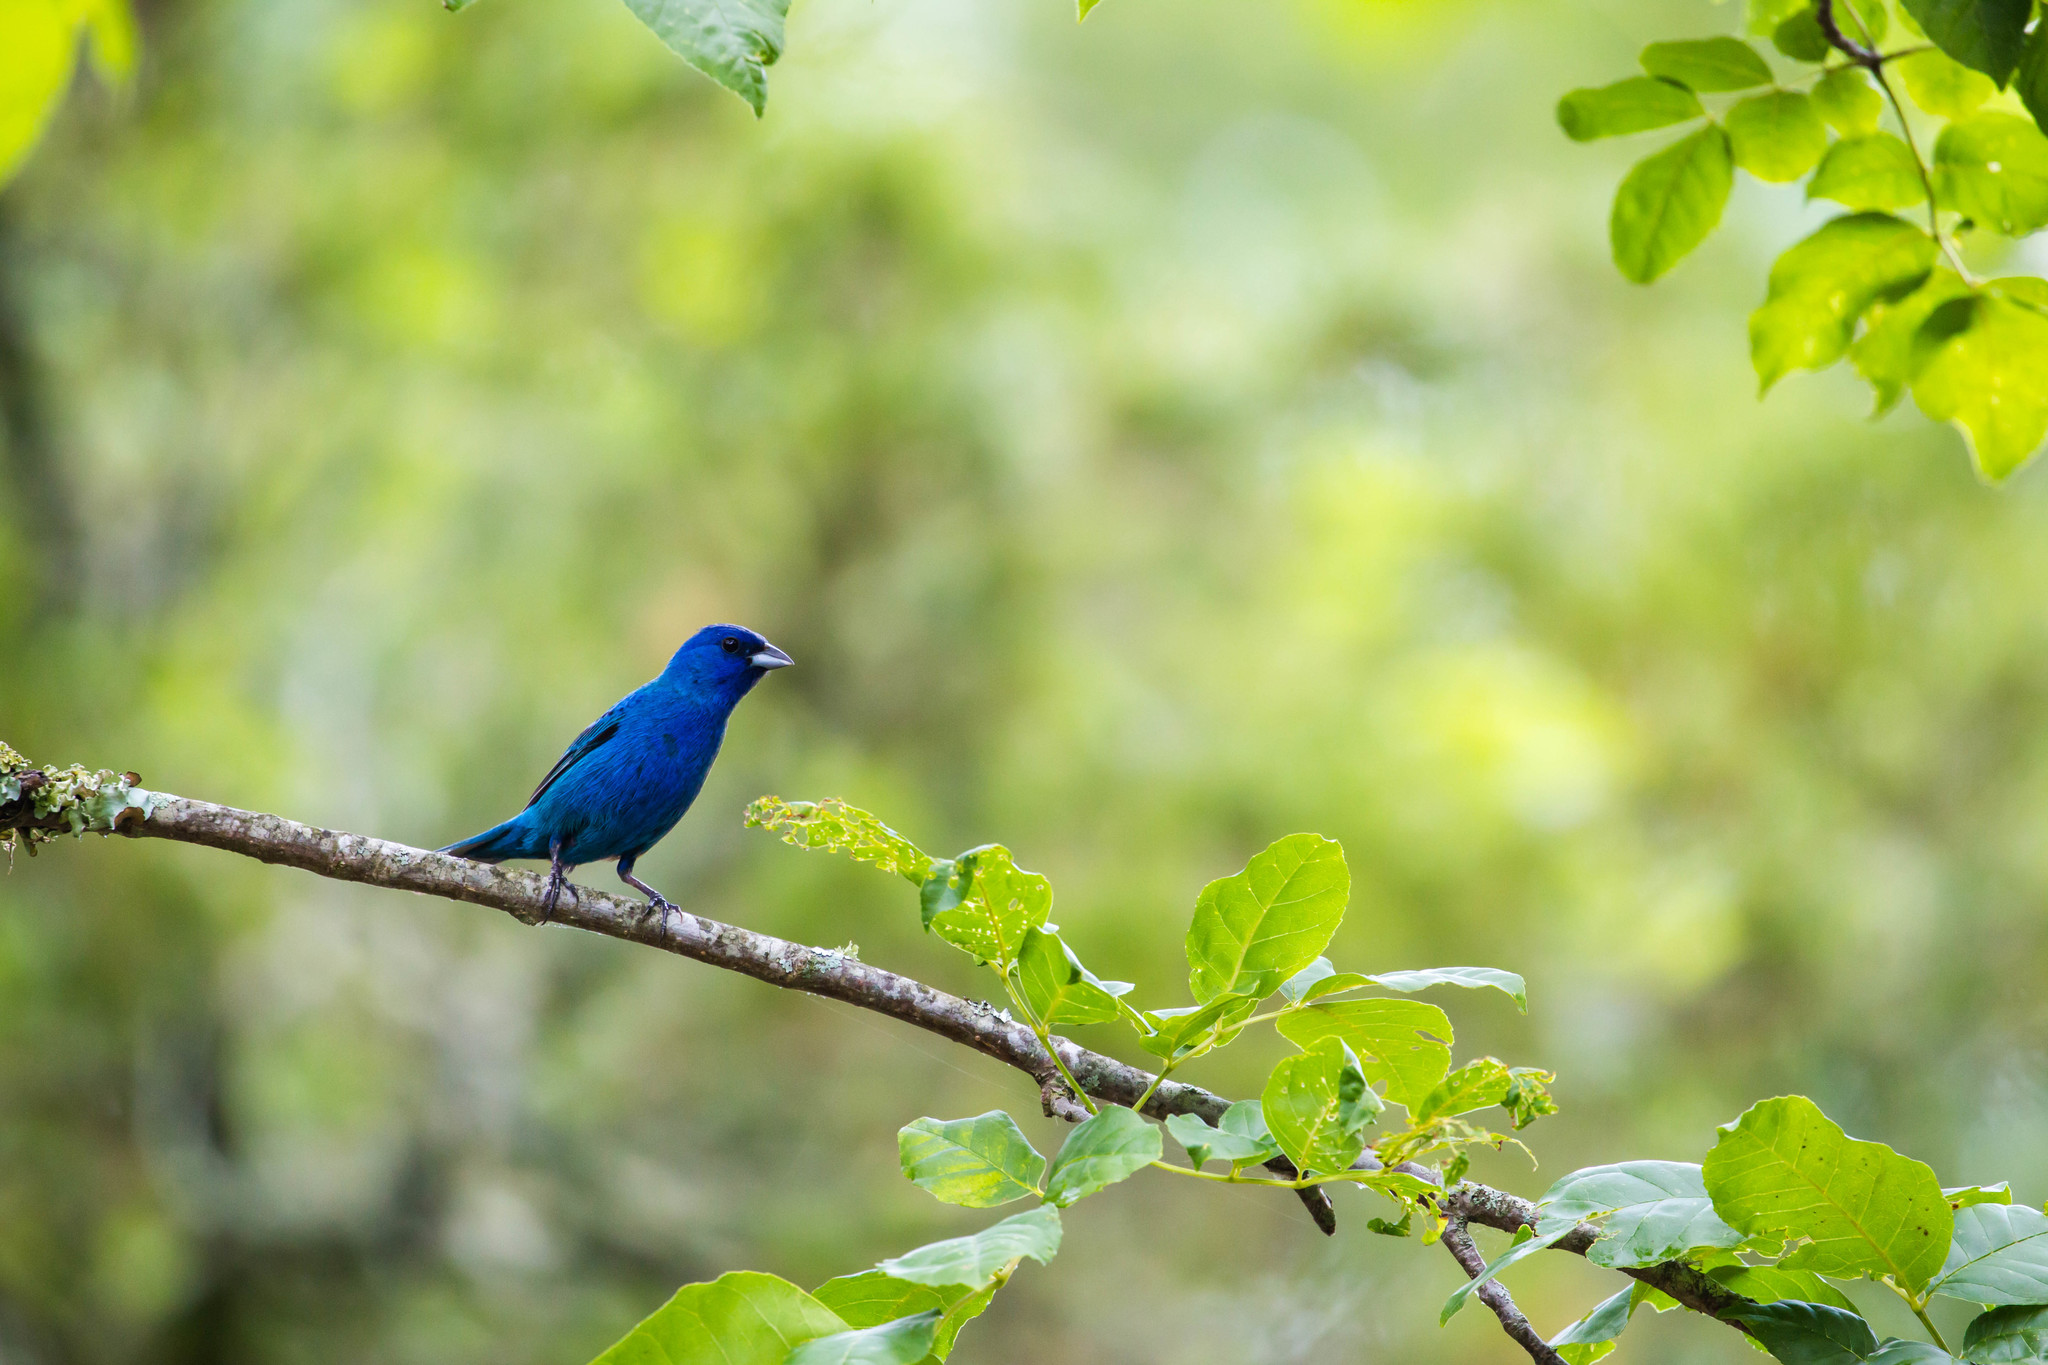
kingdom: Animalia
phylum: Chordata
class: Aves
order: Passeriformes
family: Cardinalidae
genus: Passerina
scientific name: Passerina cyanea
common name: Indigo bunting
